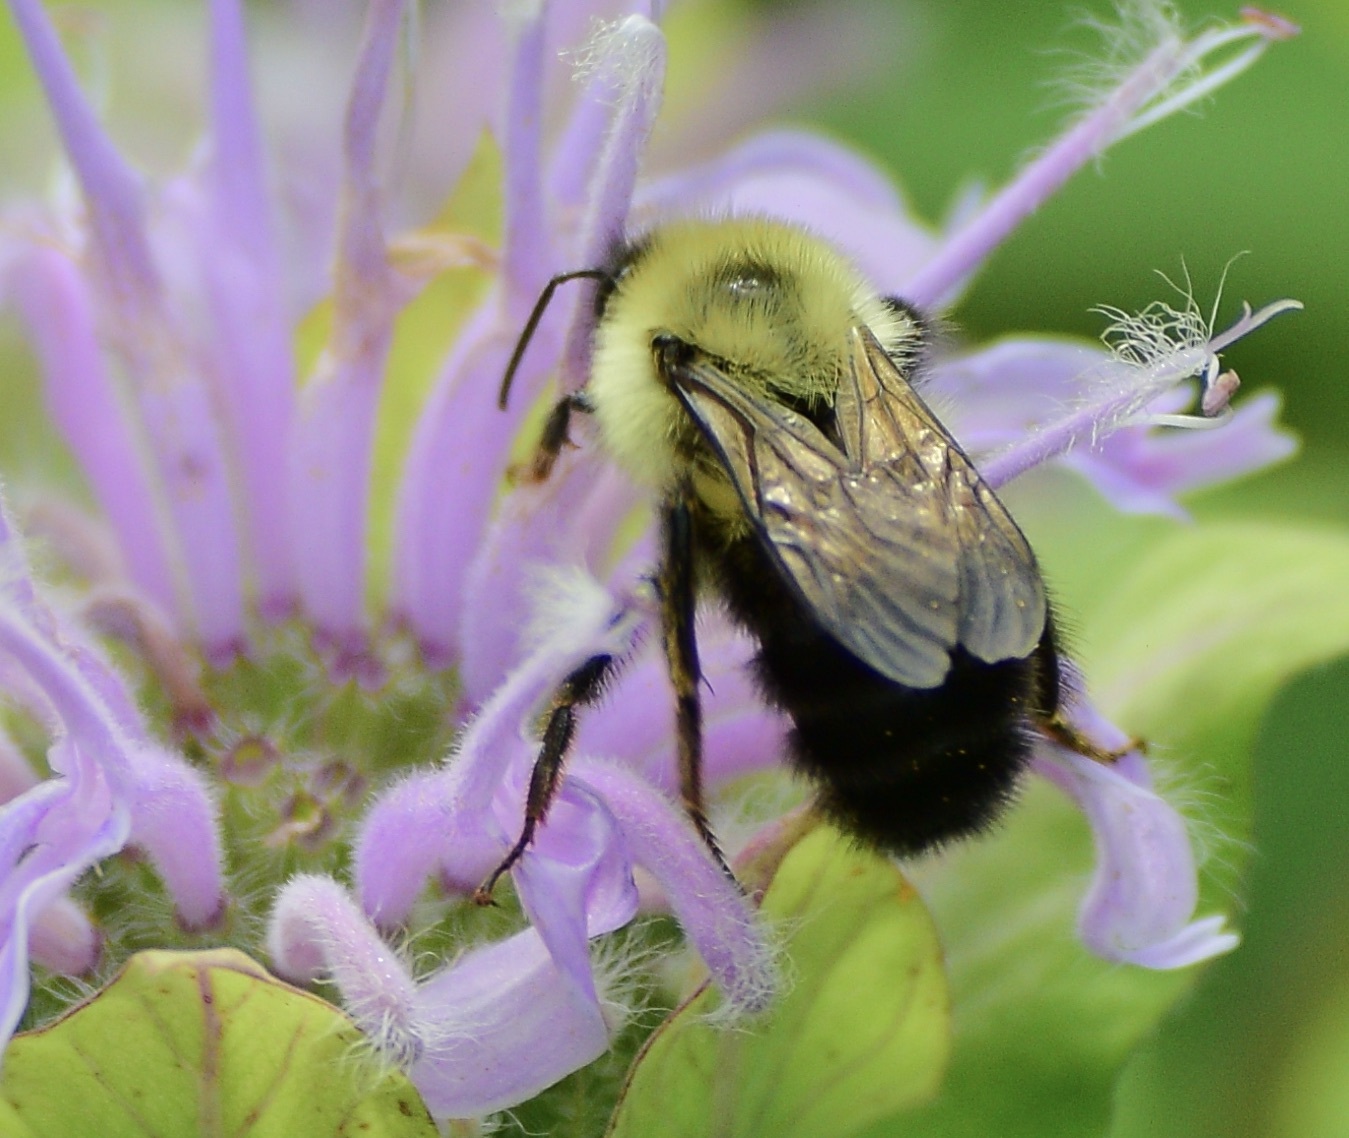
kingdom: Animalia
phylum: Arthropoda
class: Insecta
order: Hymenoptera
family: Apidae
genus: Bombus
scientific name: Bombus bimaculatus
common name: Two-spotted bumble bee
